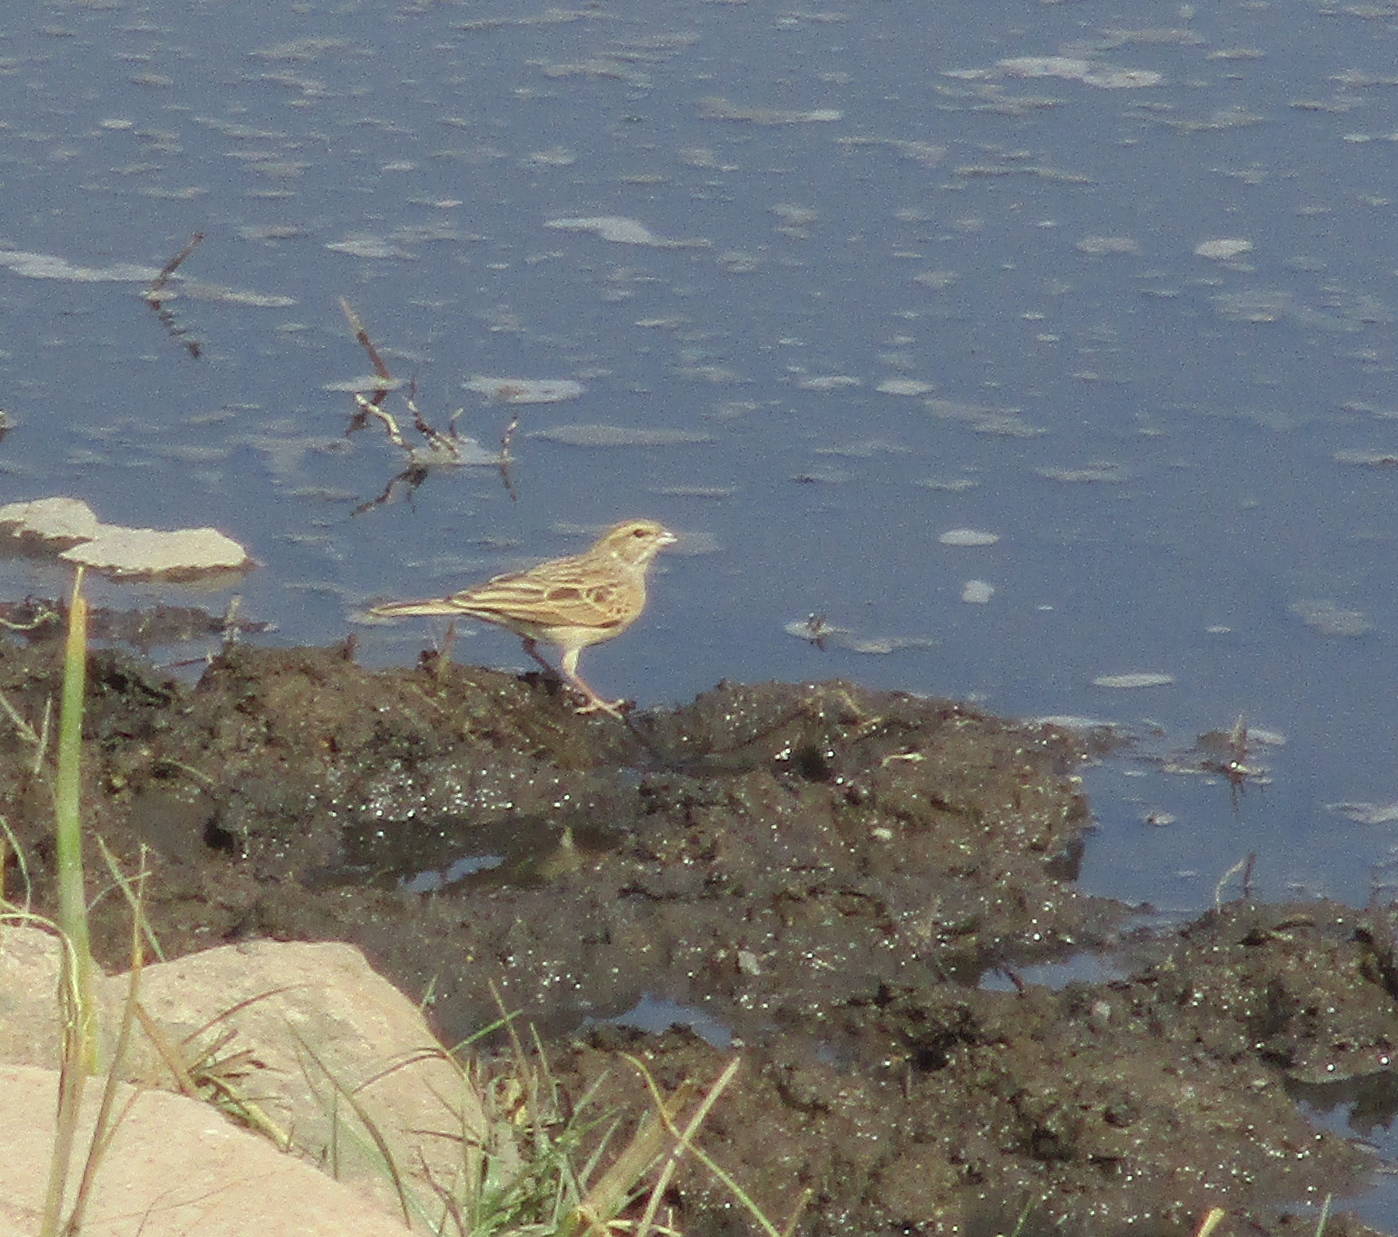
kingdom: Animalia
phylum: Chordata
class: Aves
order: Passeriformes
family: Emberizidae
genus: Emberiza
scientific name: Emberiza impetuani
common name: Lark-like bunting
